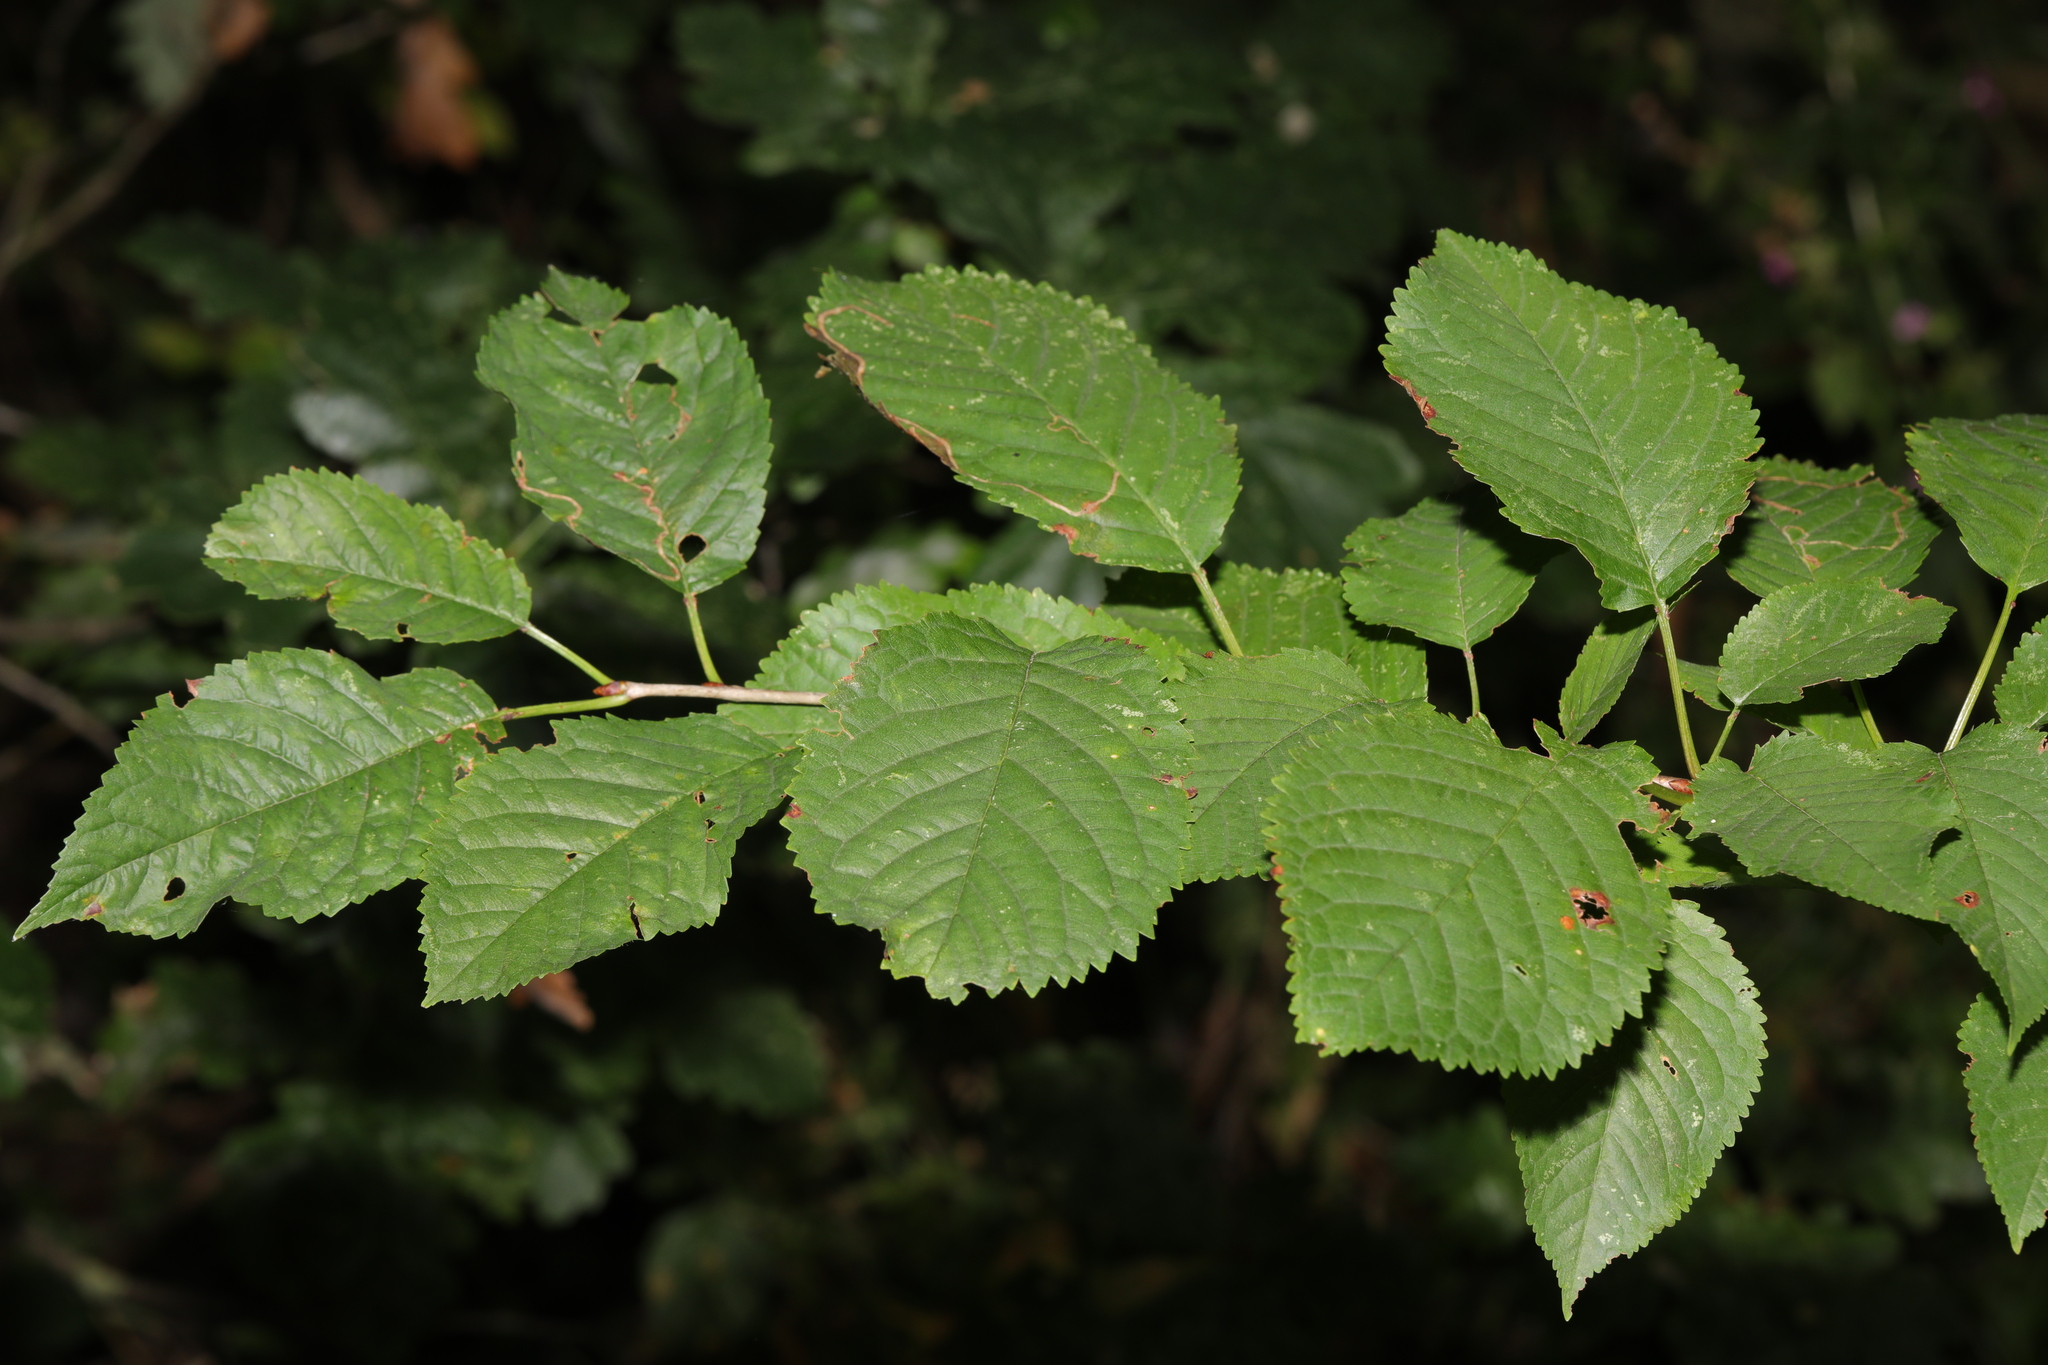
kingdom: Plantae
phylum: Tracheophyta
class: Magnoliopsida
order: Rosales
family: Rosaceae
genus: Prunus
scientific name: Prunus avium
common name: Sweet cherry
